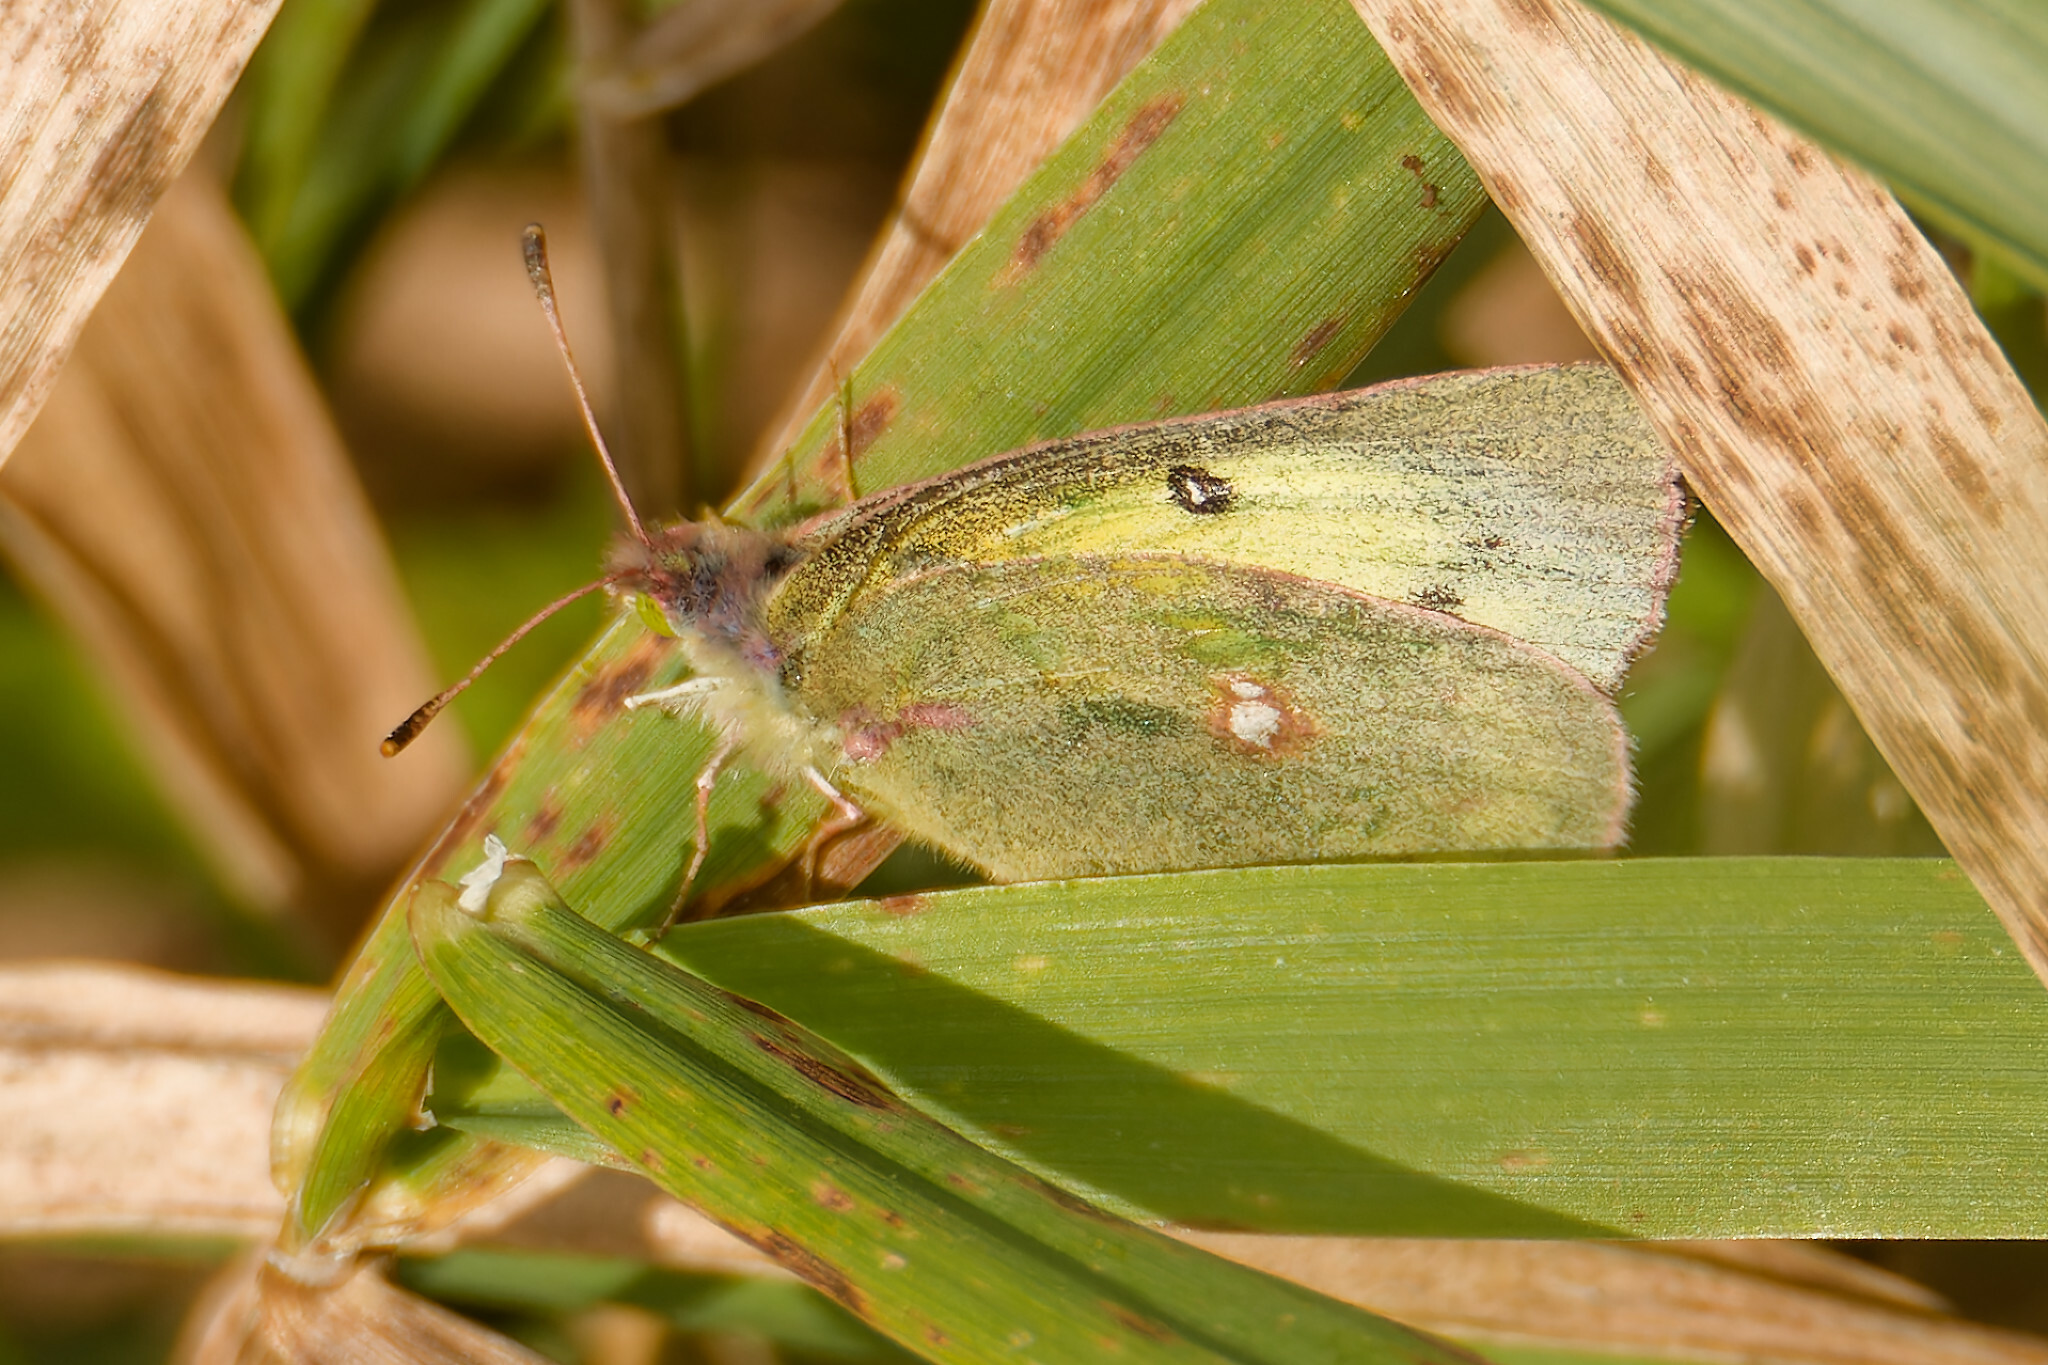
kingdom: Animalia
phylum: Arthropoda
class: Insecta
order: Lepidoptera
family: Pieridae
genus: Colias
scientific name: Colias philodice
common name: Clouded sulphur
